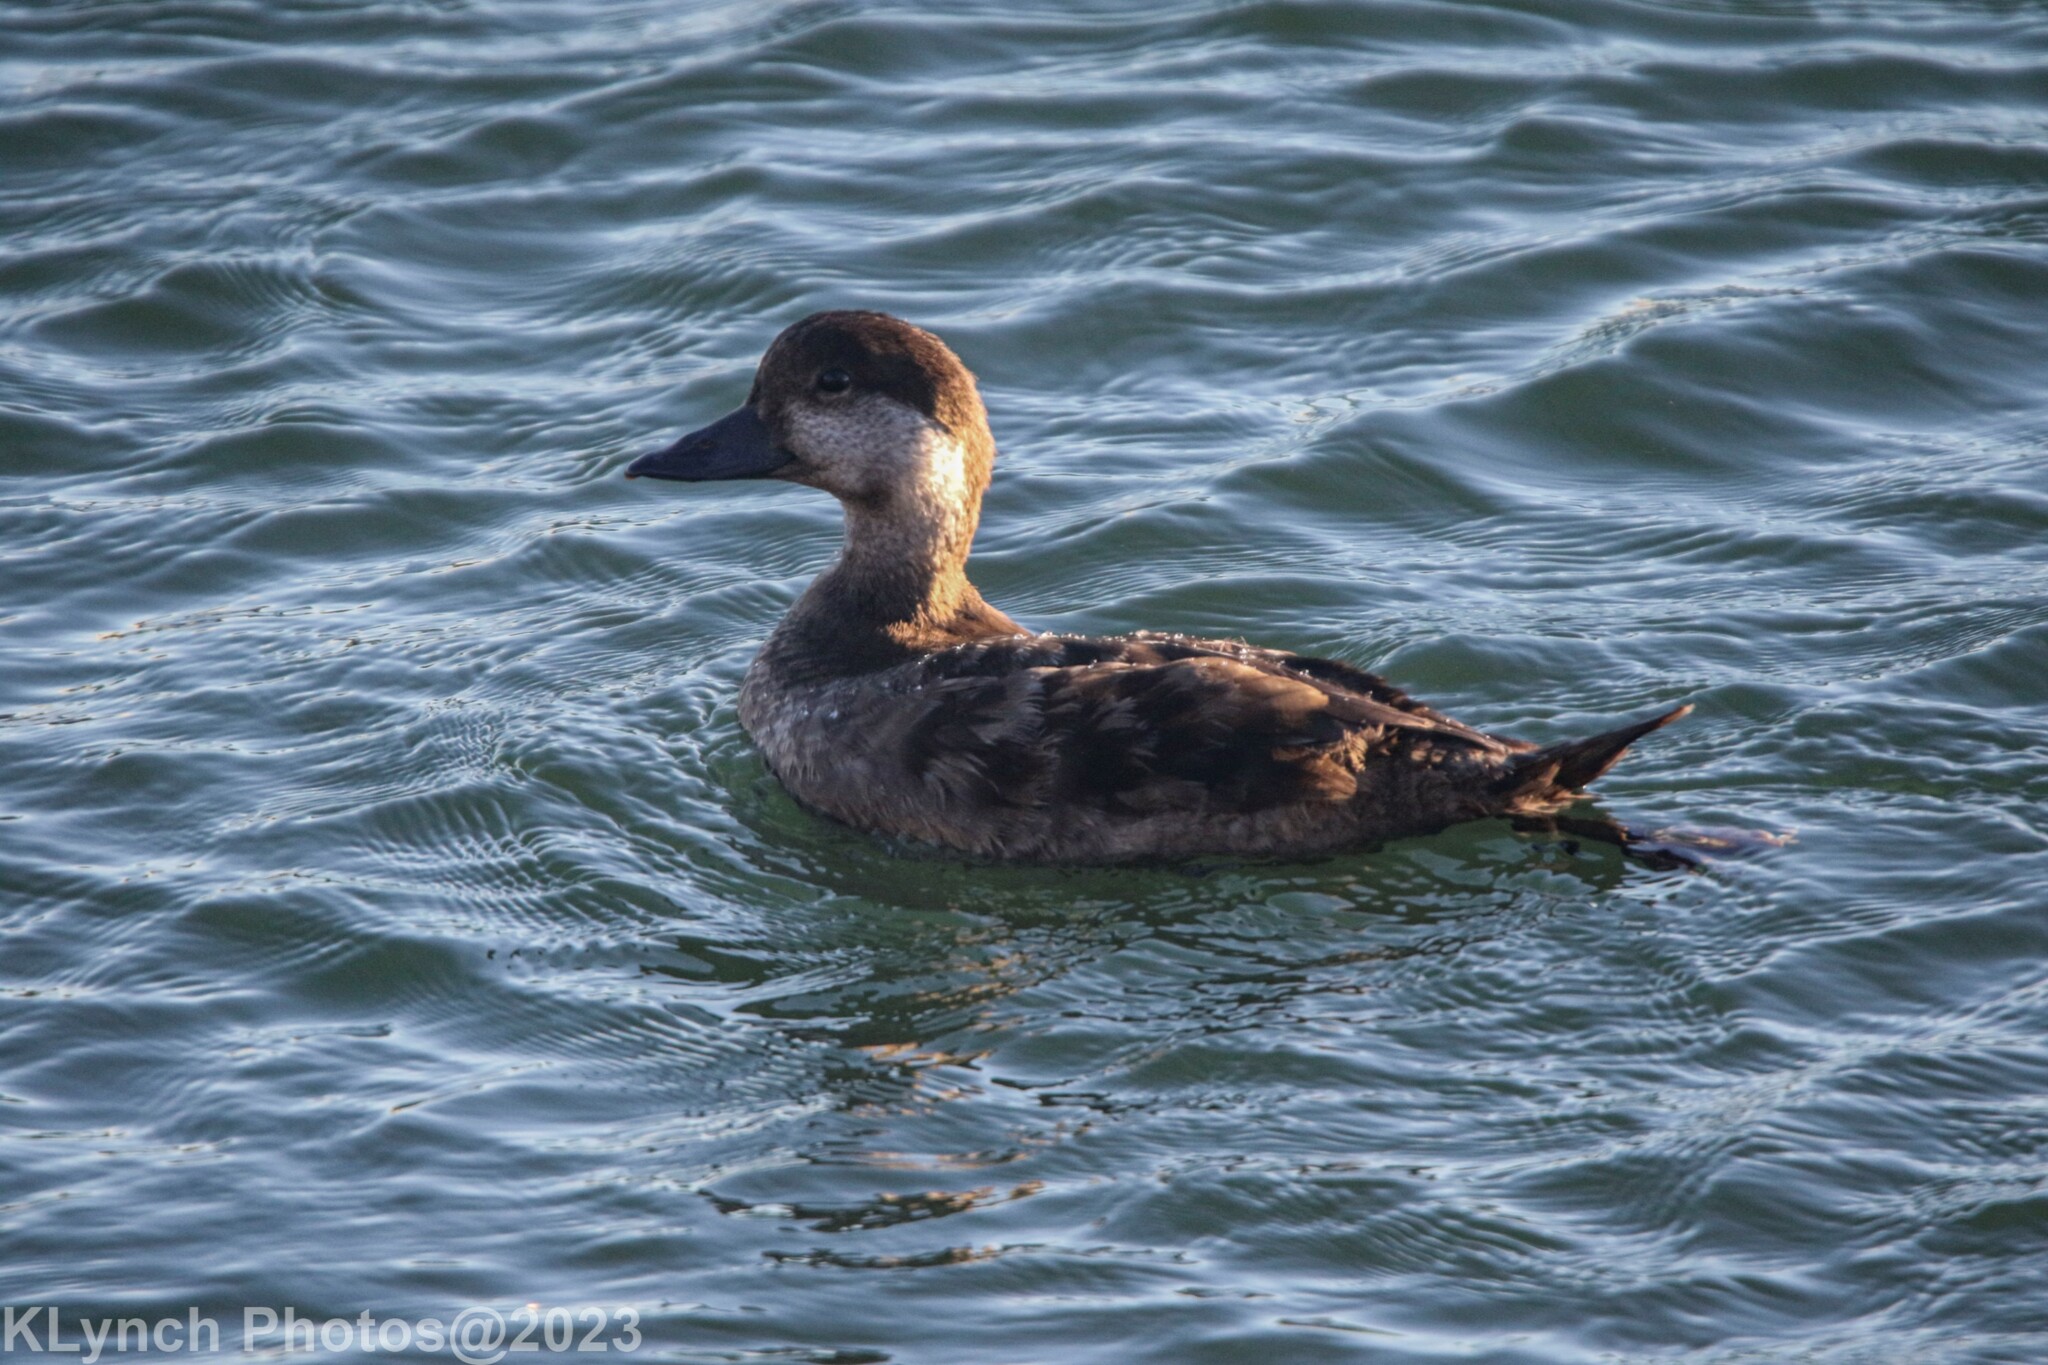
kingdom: Animalia
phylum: Chordata
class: Aves
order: Anseriformes
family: Anatidae
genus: Melanitta
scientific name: Melanitta americana
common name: Black scoter
